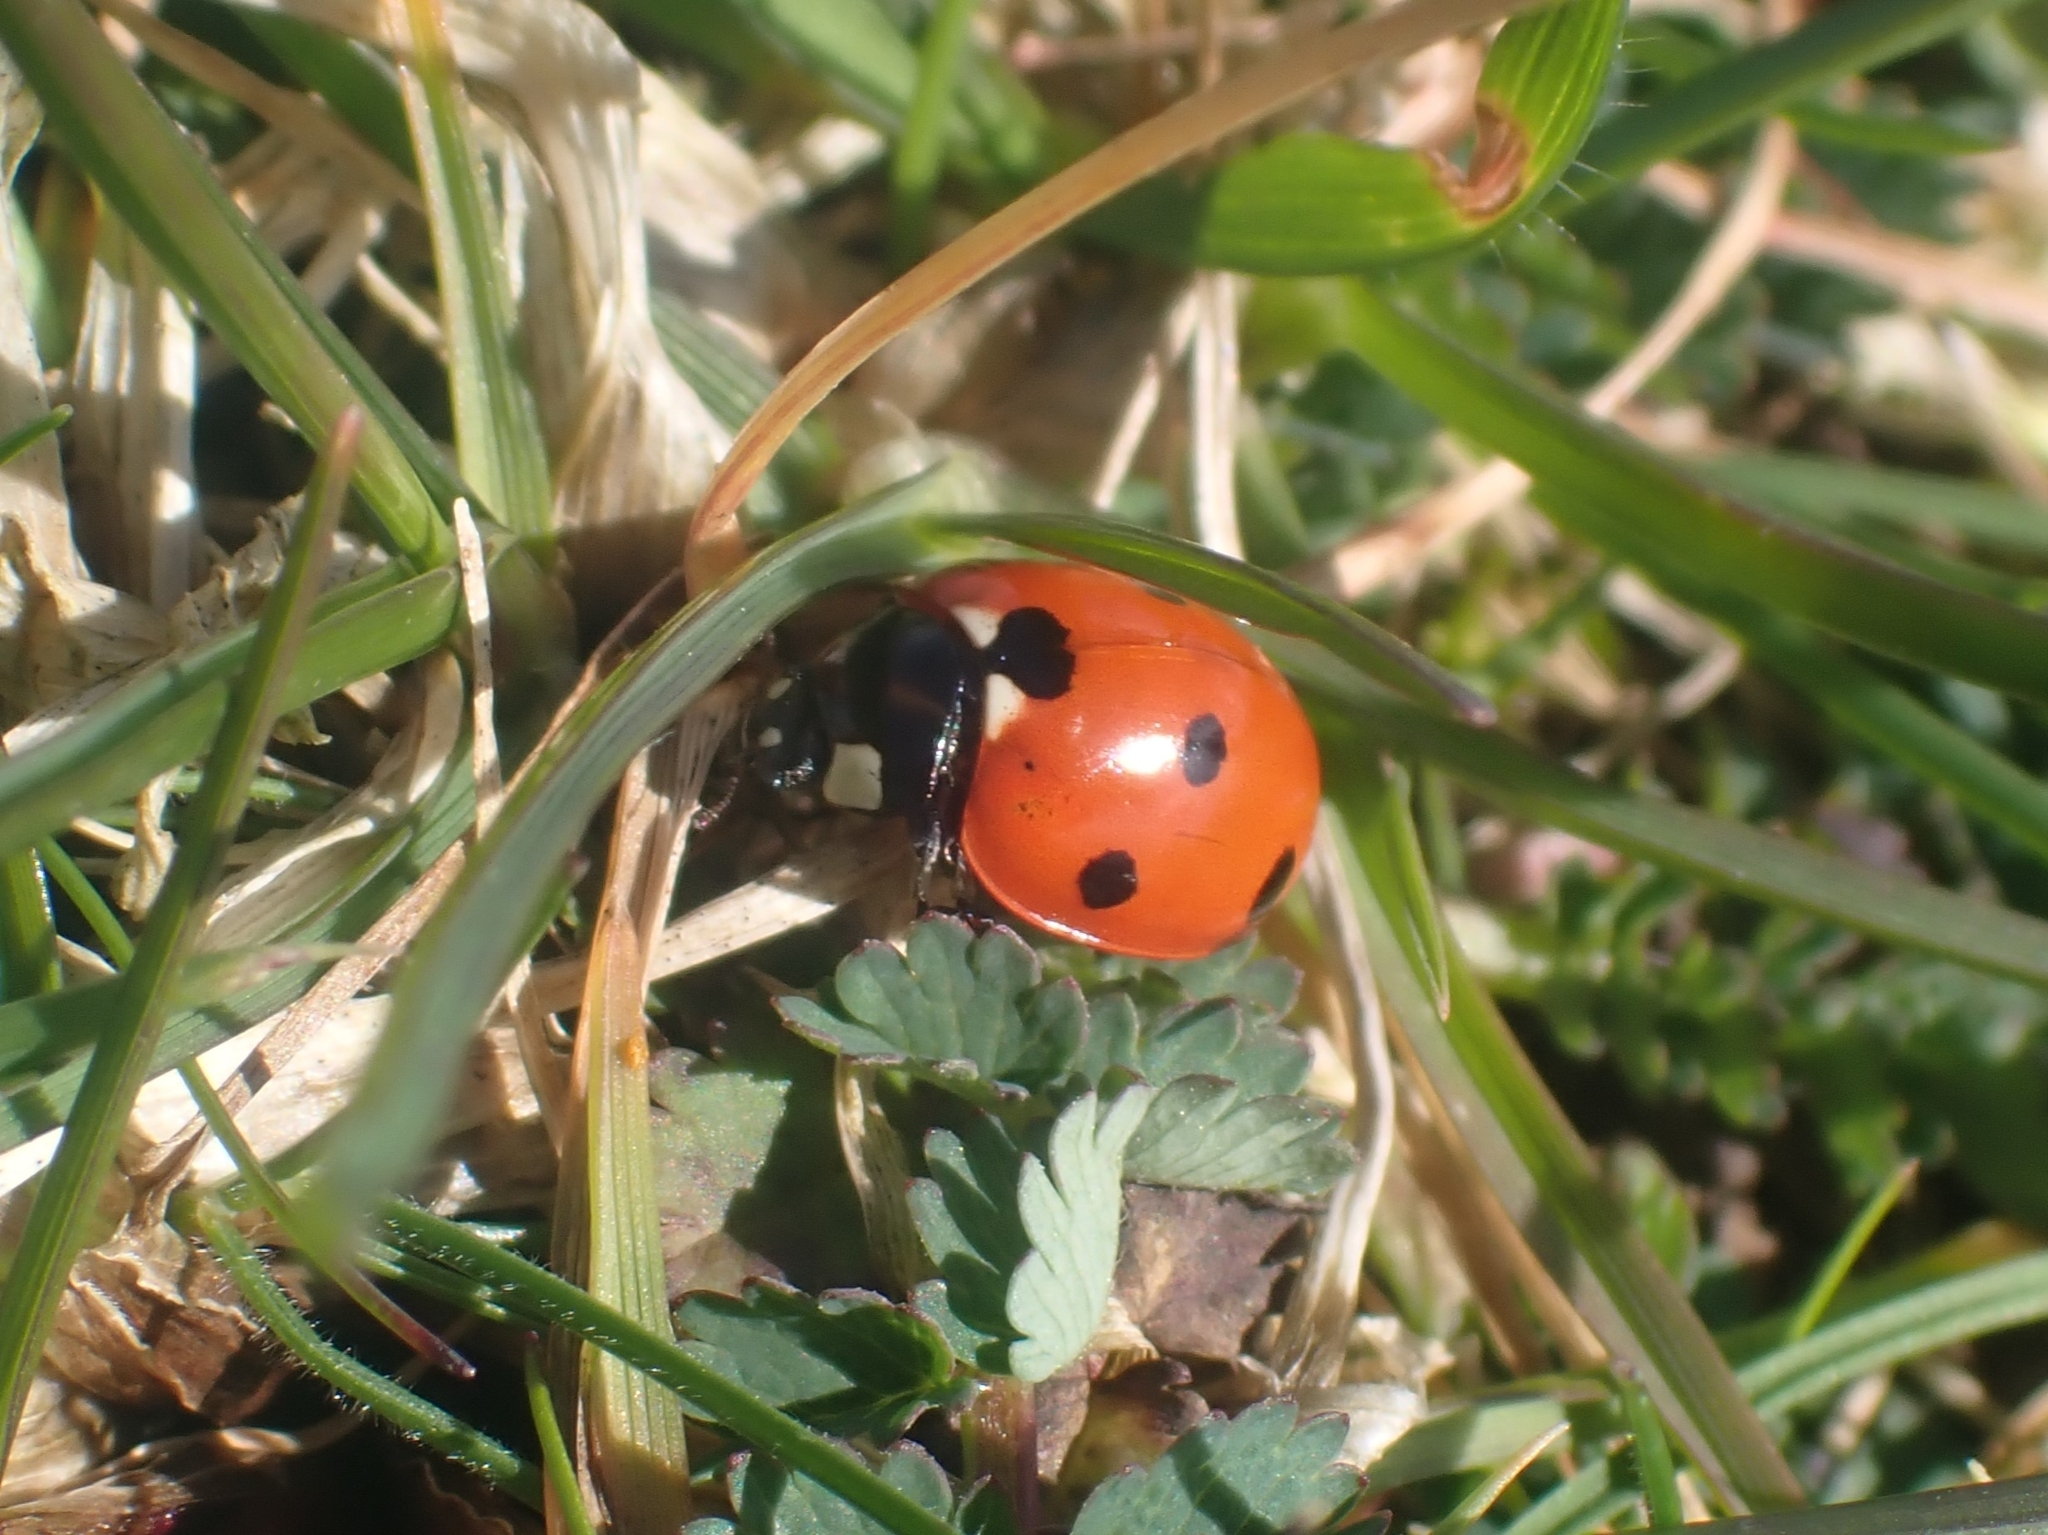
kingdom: Animalia
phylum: Arthropoda
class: Insecta
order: Coleoptera
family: Coccinellidae
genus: Coccinella
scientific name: Coccinella septempunctata
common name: Sevenspotted lady beetle
